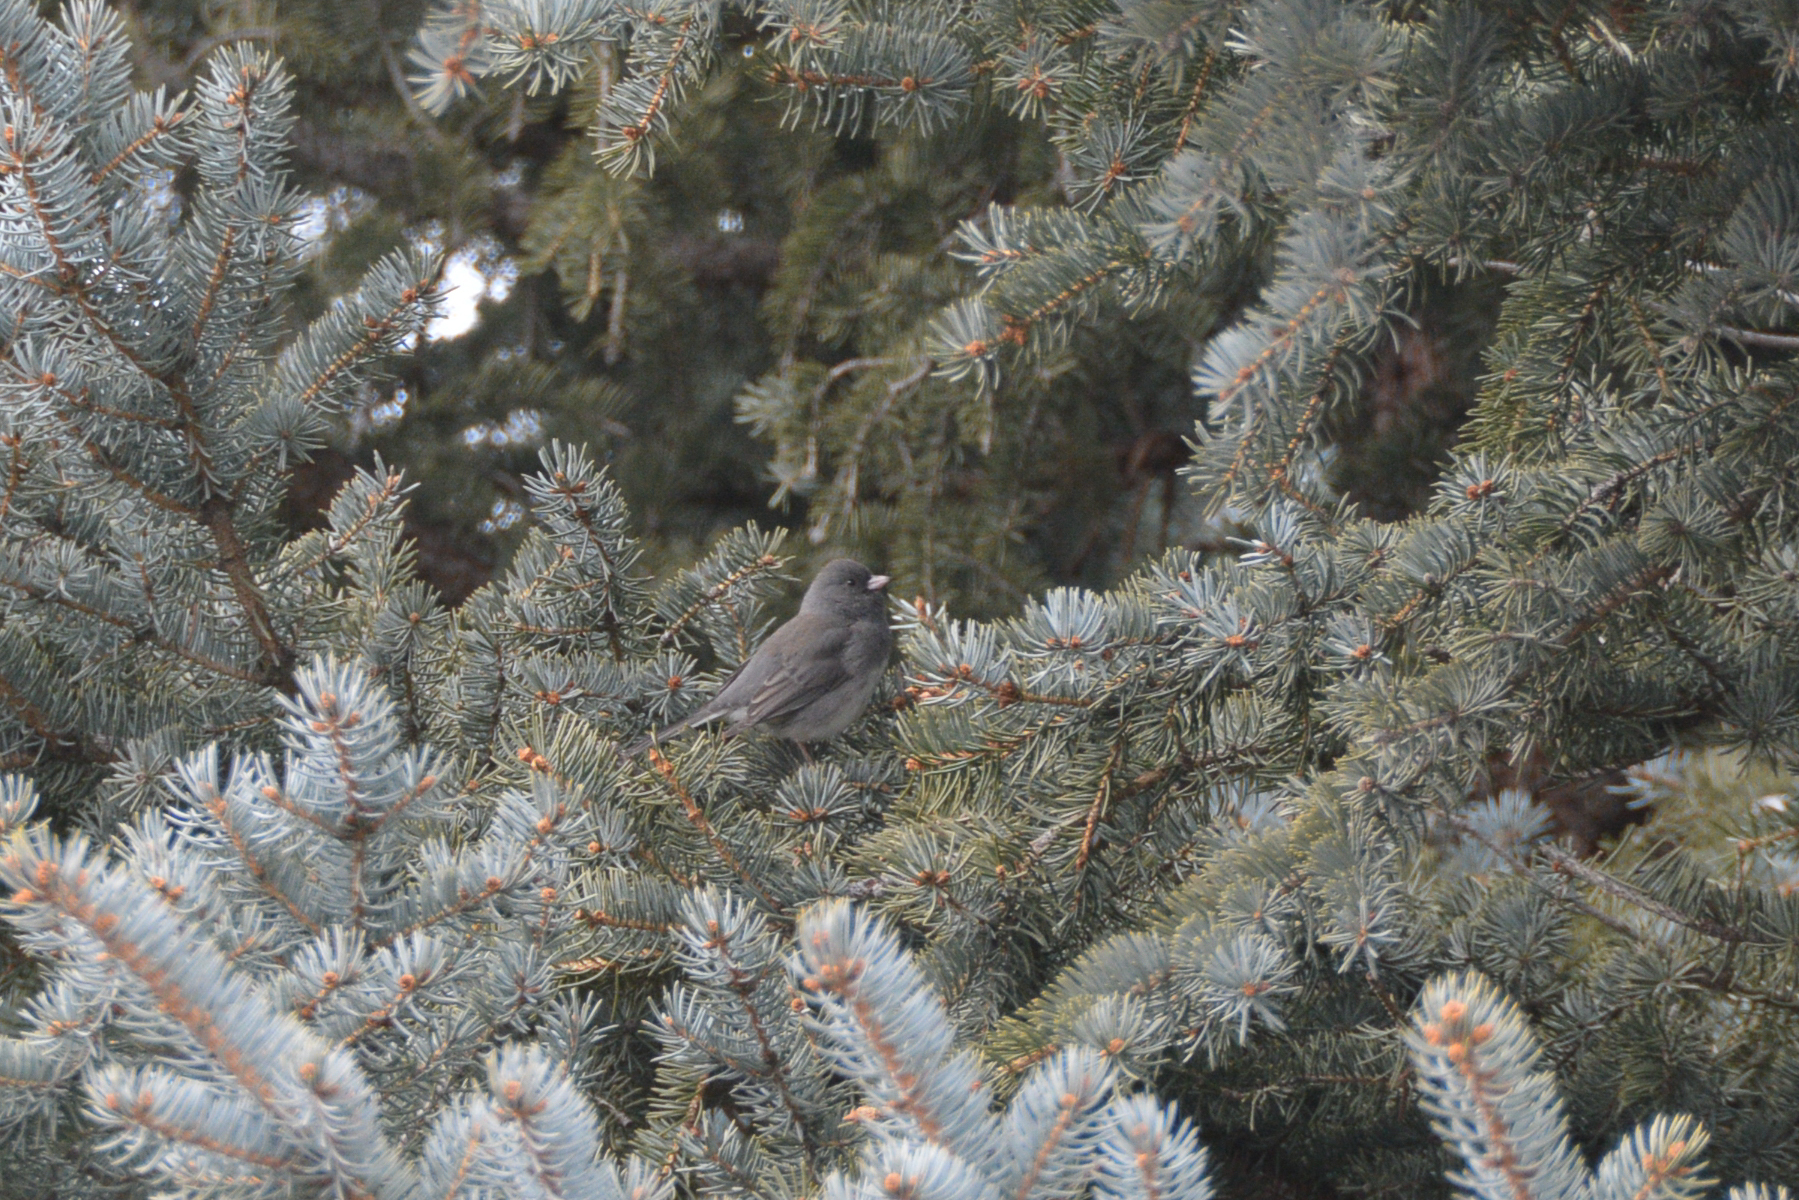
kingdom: Animalia
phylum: Chordata
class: Aves
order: Passeriformes
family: Passerellidae
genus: Junco
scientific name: Junco hyemalis
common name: Dark-eyed junco
